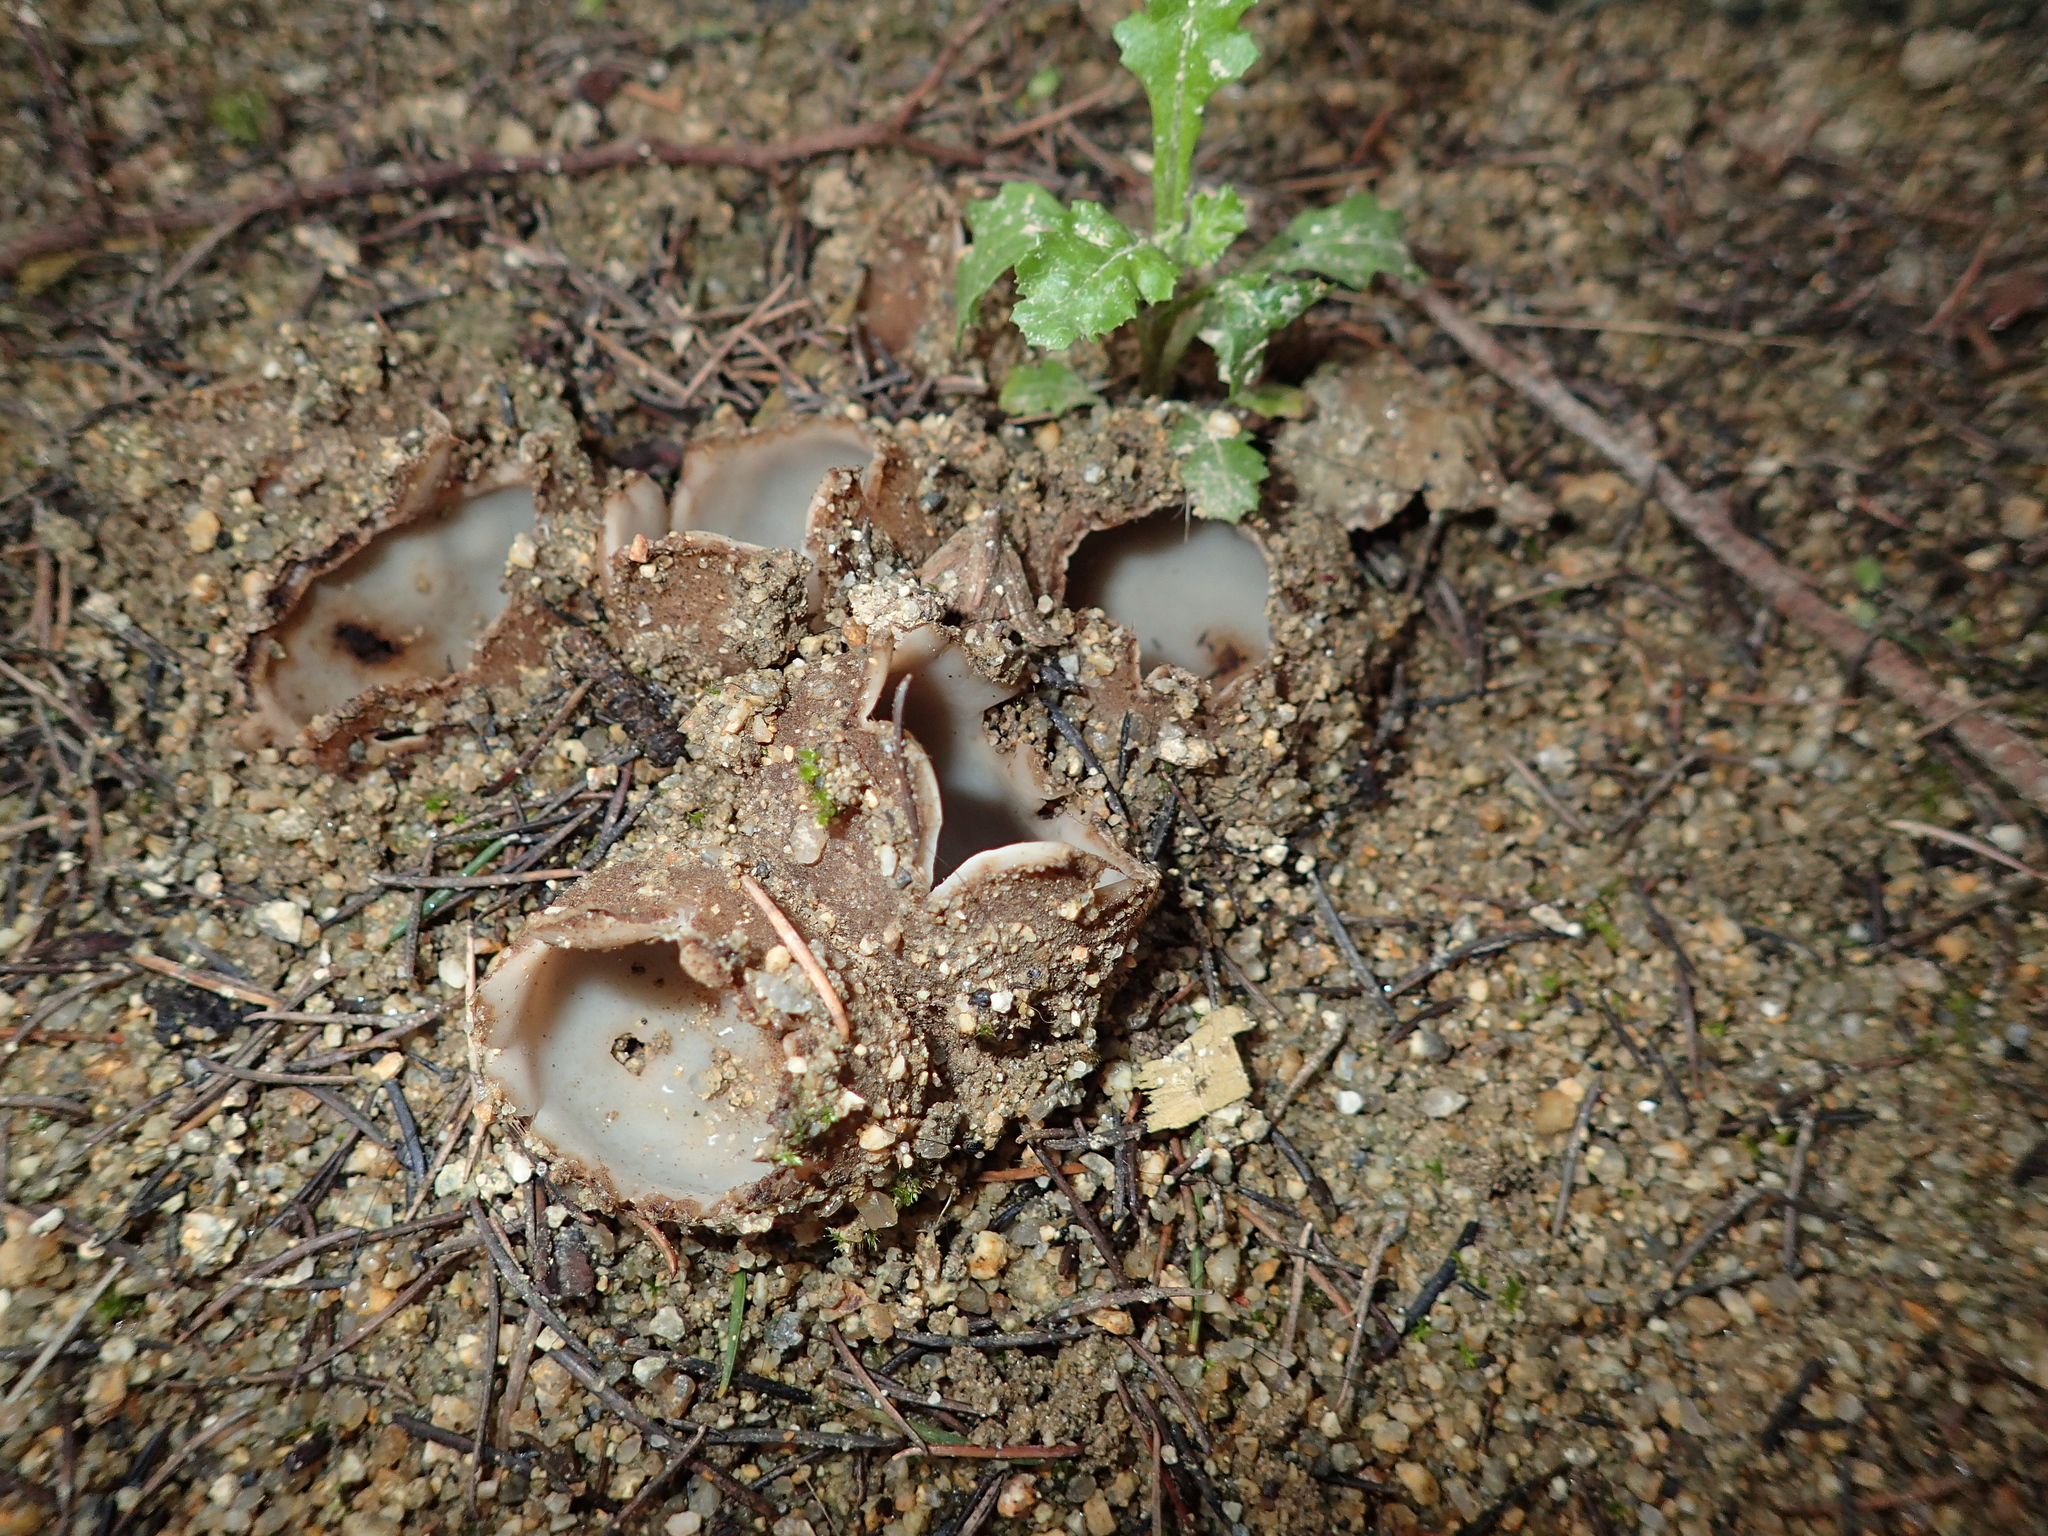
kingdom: Fungi
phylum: Ascomycota
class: Pezizomycetes
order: Pezizales
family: Pyronemataceae
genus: Geopora
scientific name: Geopora sumneriana
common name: Cedar cup
